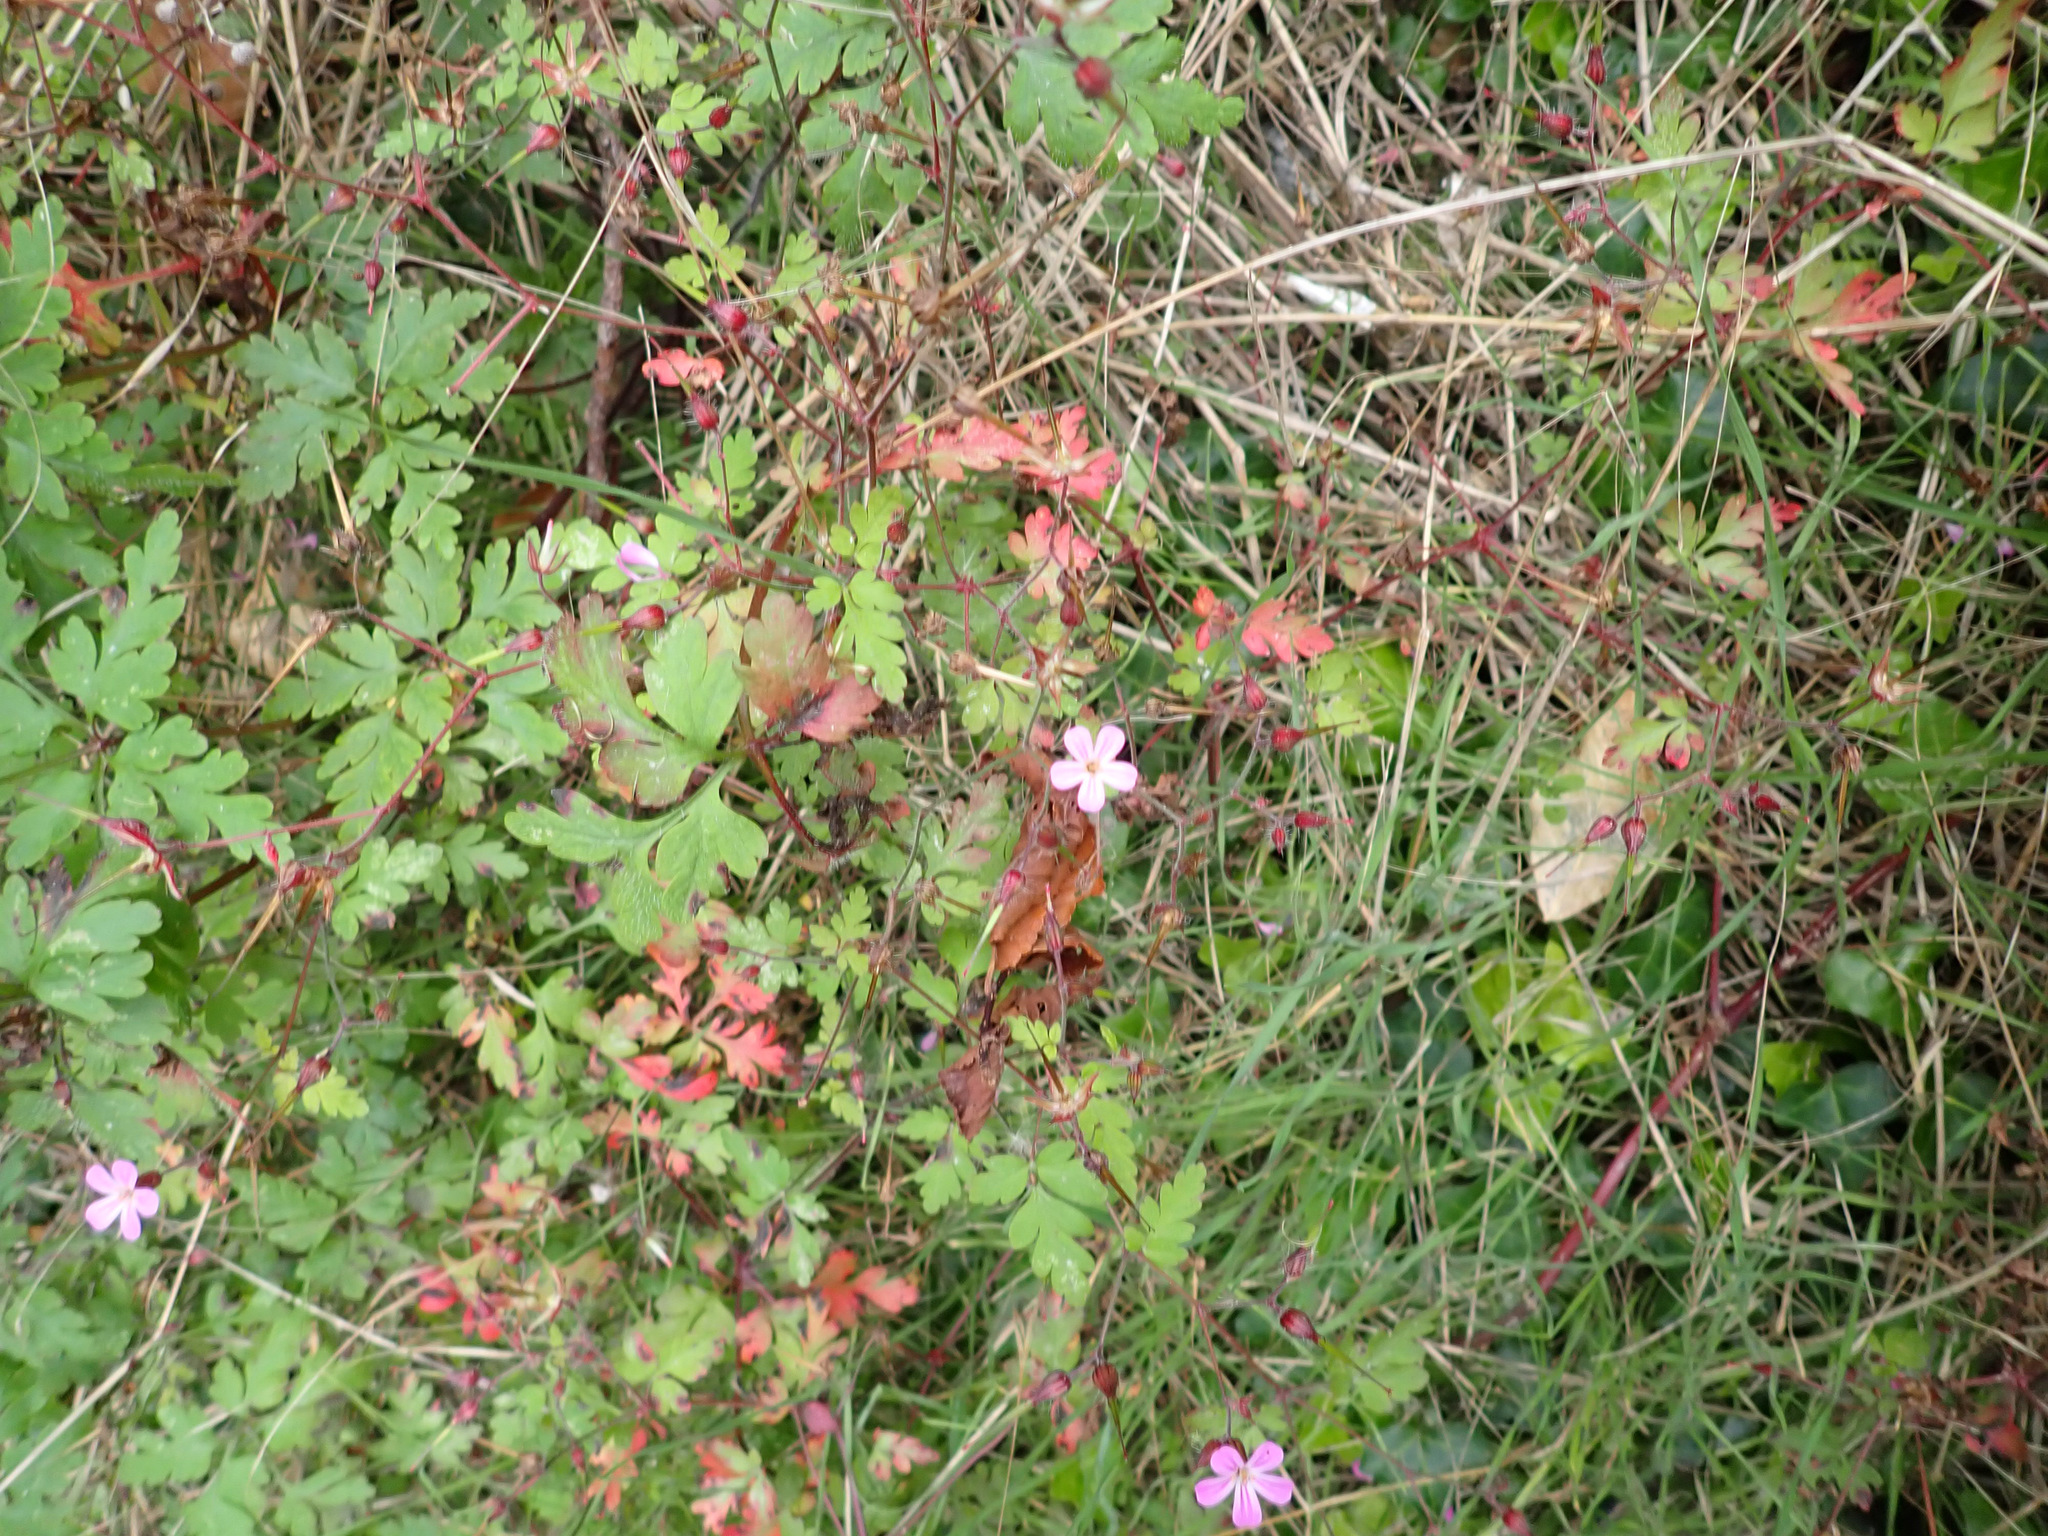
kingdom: Plantae
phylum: Tracheophyta
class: Magnoliopsida
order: Geraniales
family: Geraniaceae
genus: Geranium
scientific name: Geranium robertianum
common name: Herb-robert
